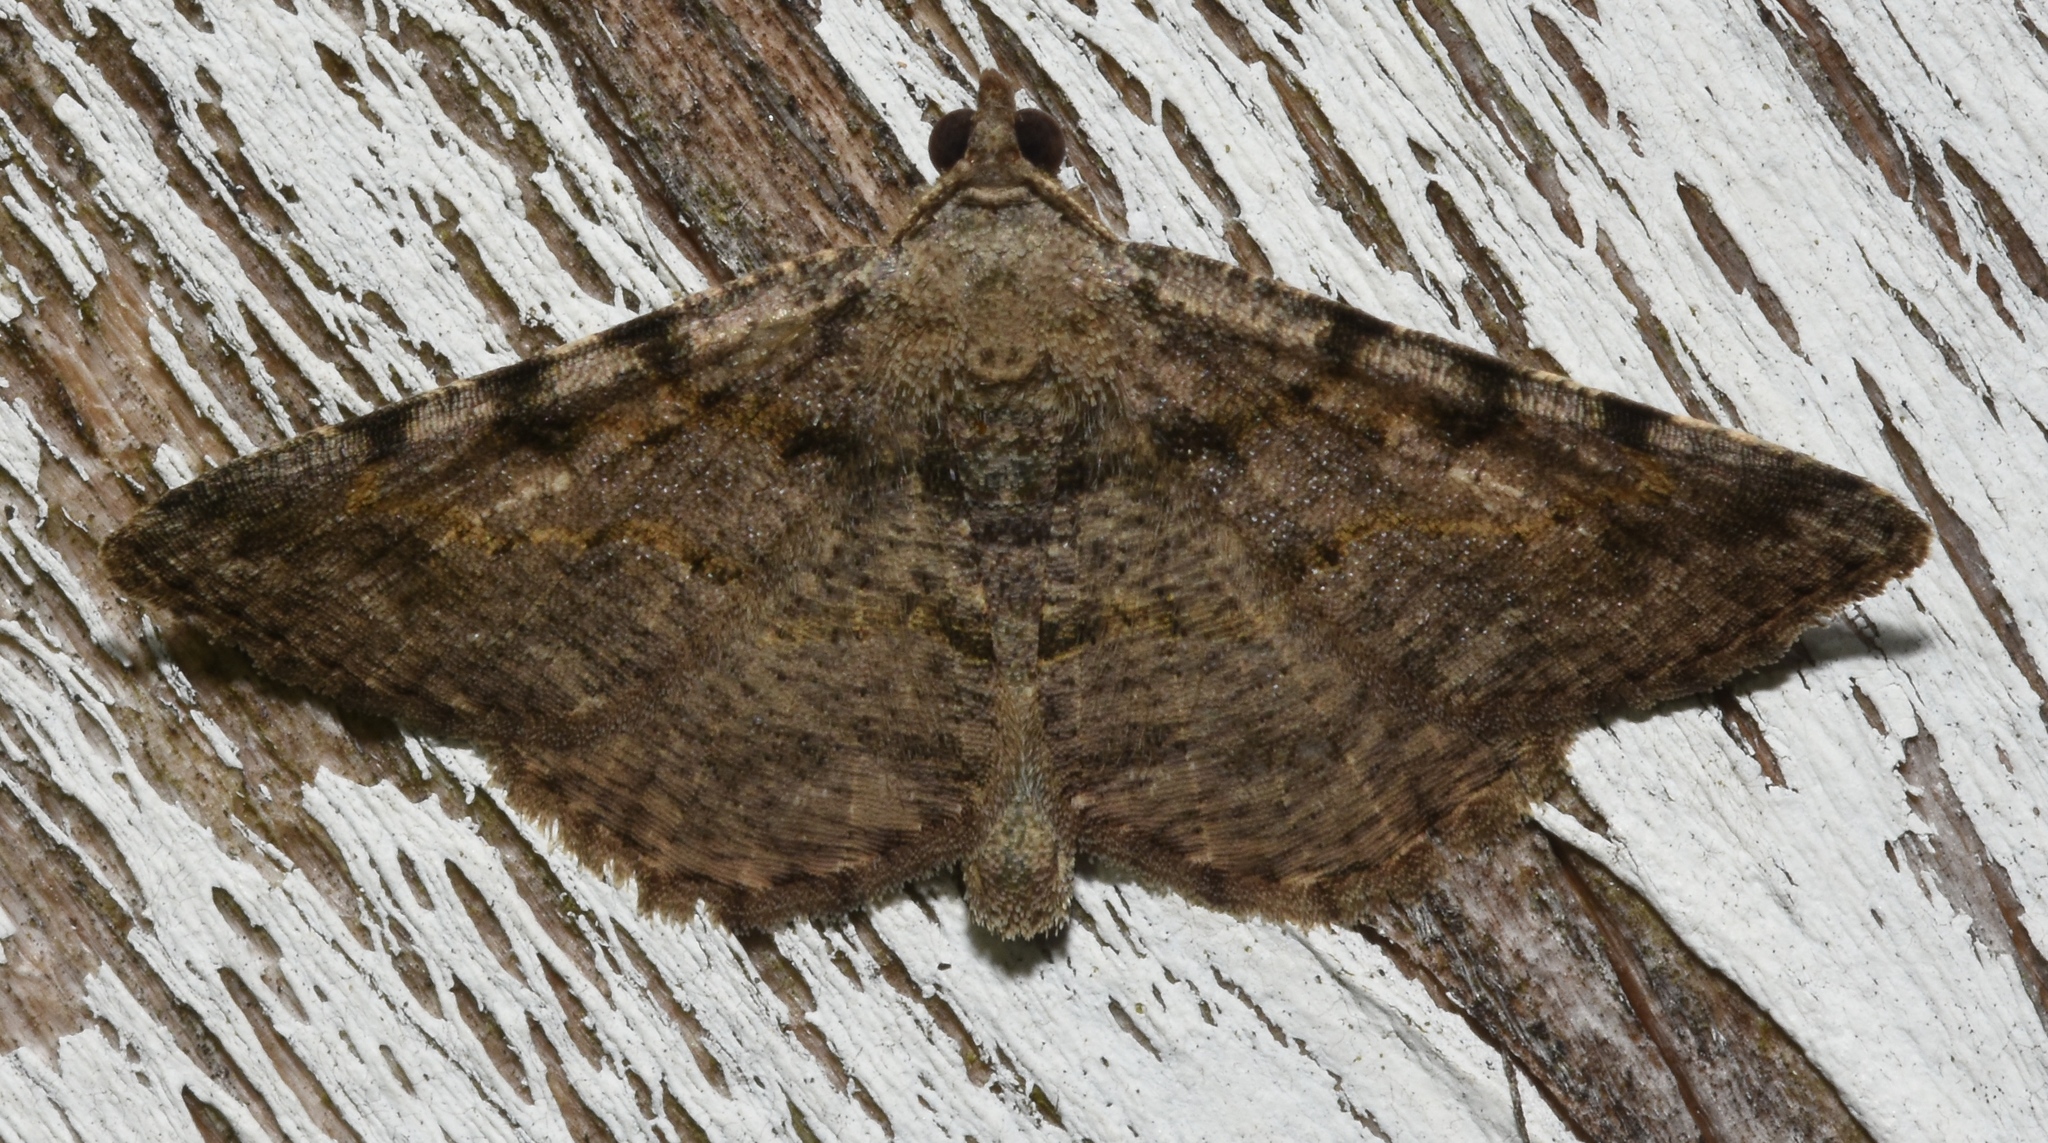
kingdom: Animalia
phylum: Arthropoda
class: Insecta
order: Lepidoptera
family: Geometridae
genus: Digrammia
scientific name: Digrammia gnophosaria
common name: Hollow-spotted angle
